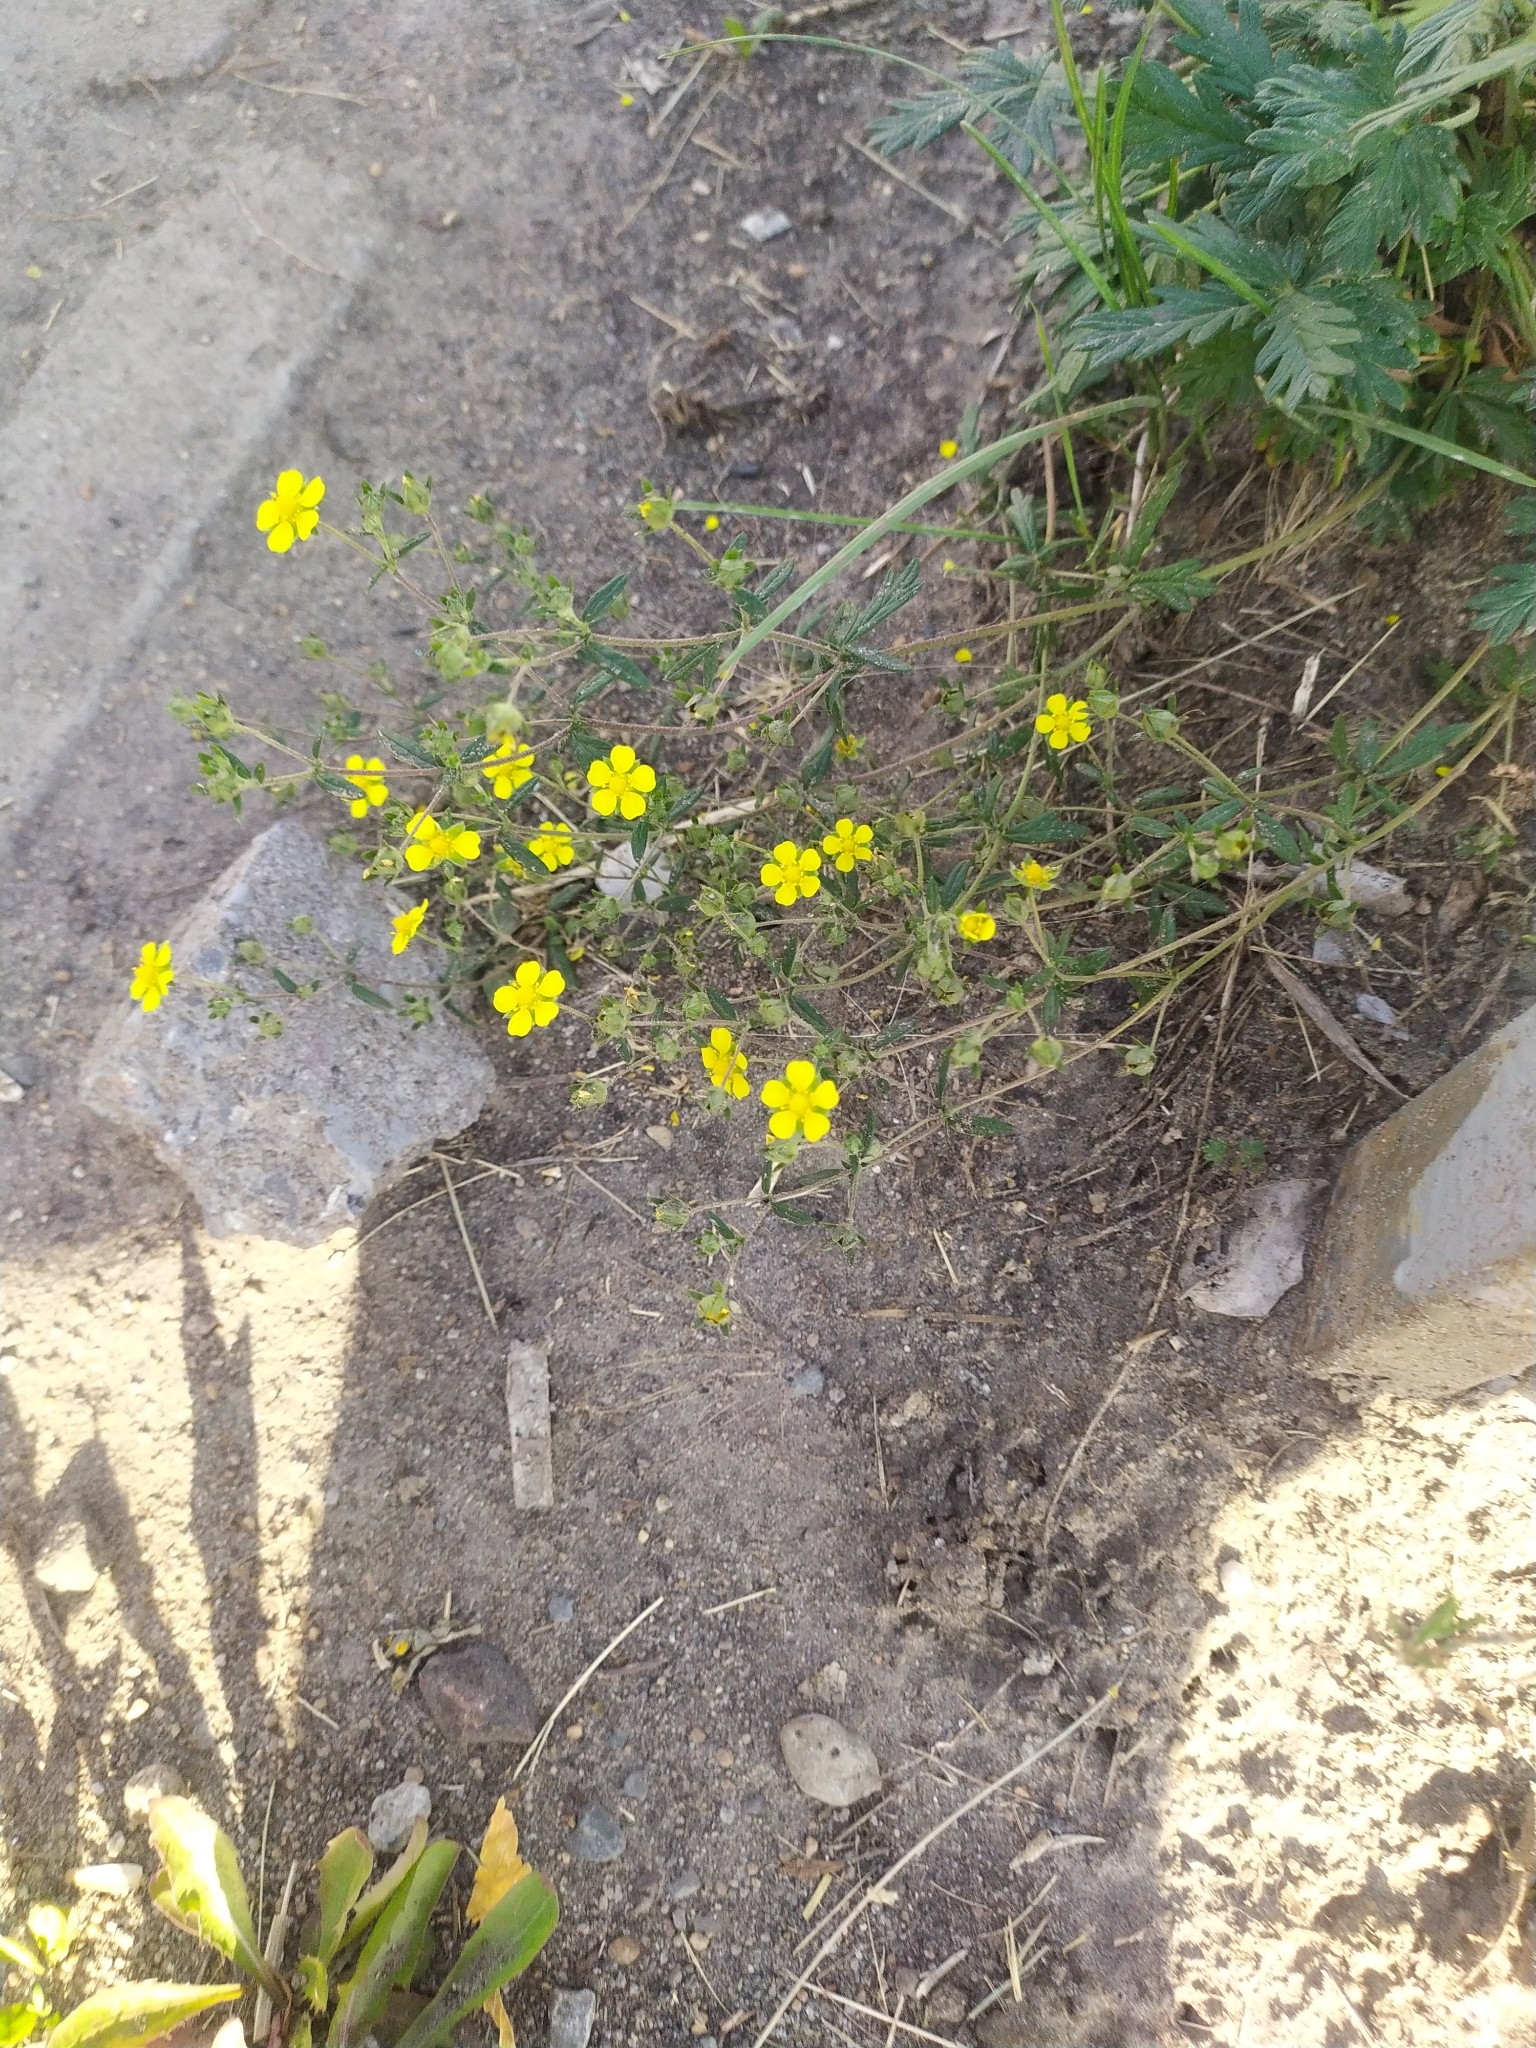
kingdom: Plantae
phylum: Tracheophyta
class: Magnoliopsida
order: Rosales
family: Rosaceae
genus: Potentilla
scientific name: Potentilla argentea
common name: Hoary cinquefoil
